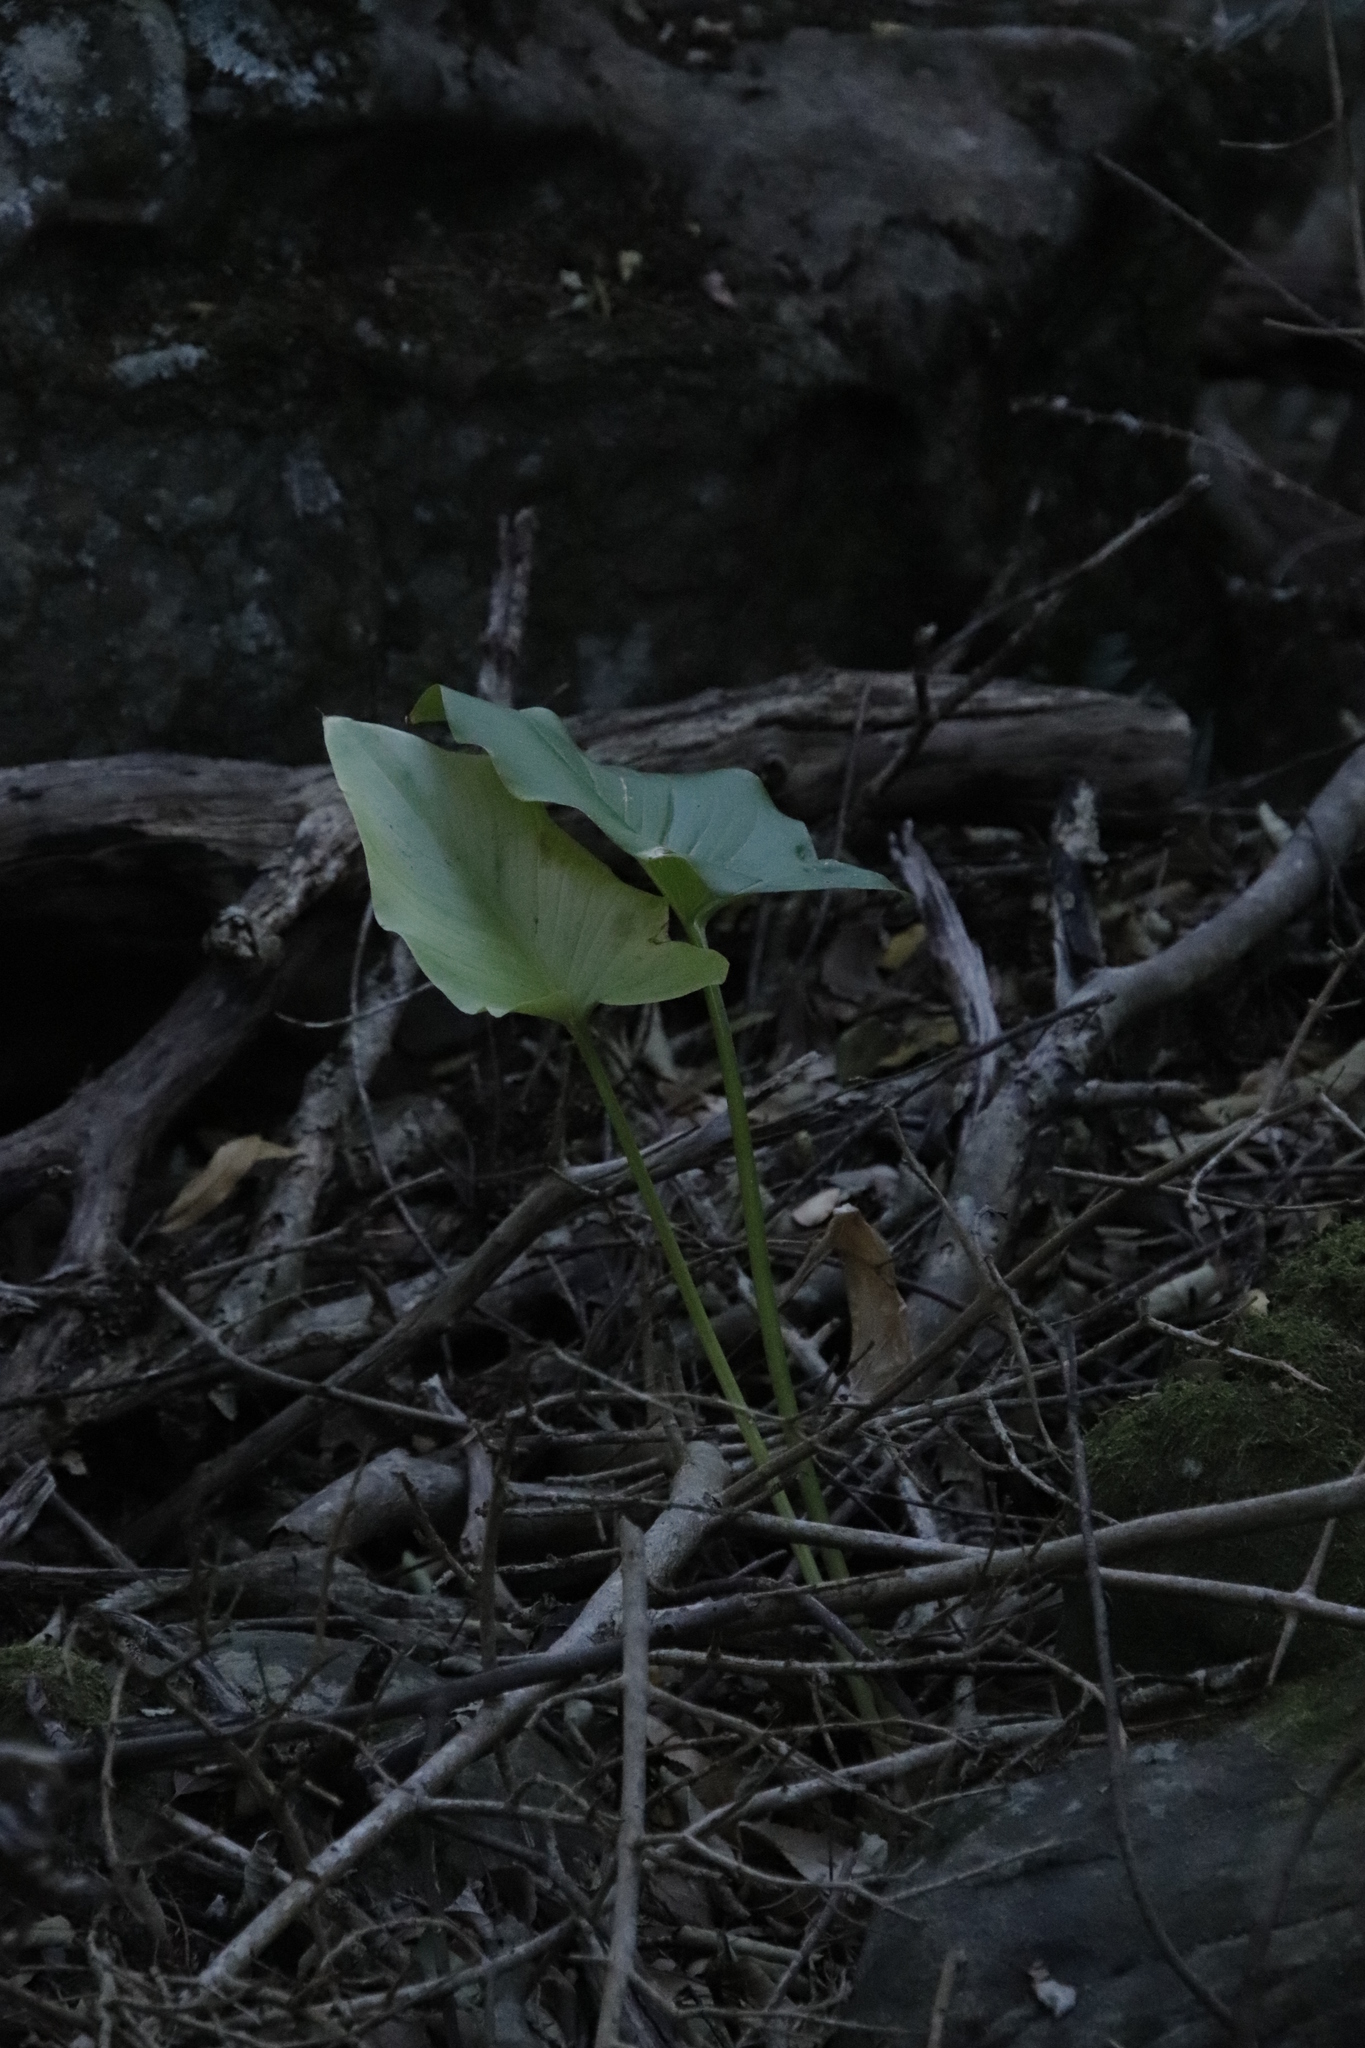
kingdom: Plantae
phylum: Tracheophyta
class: Liliopsida
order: Alismatales
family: Araceae
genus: Zantedeschia
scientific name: Zantedeschia aethiopica
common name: Altar-lily
